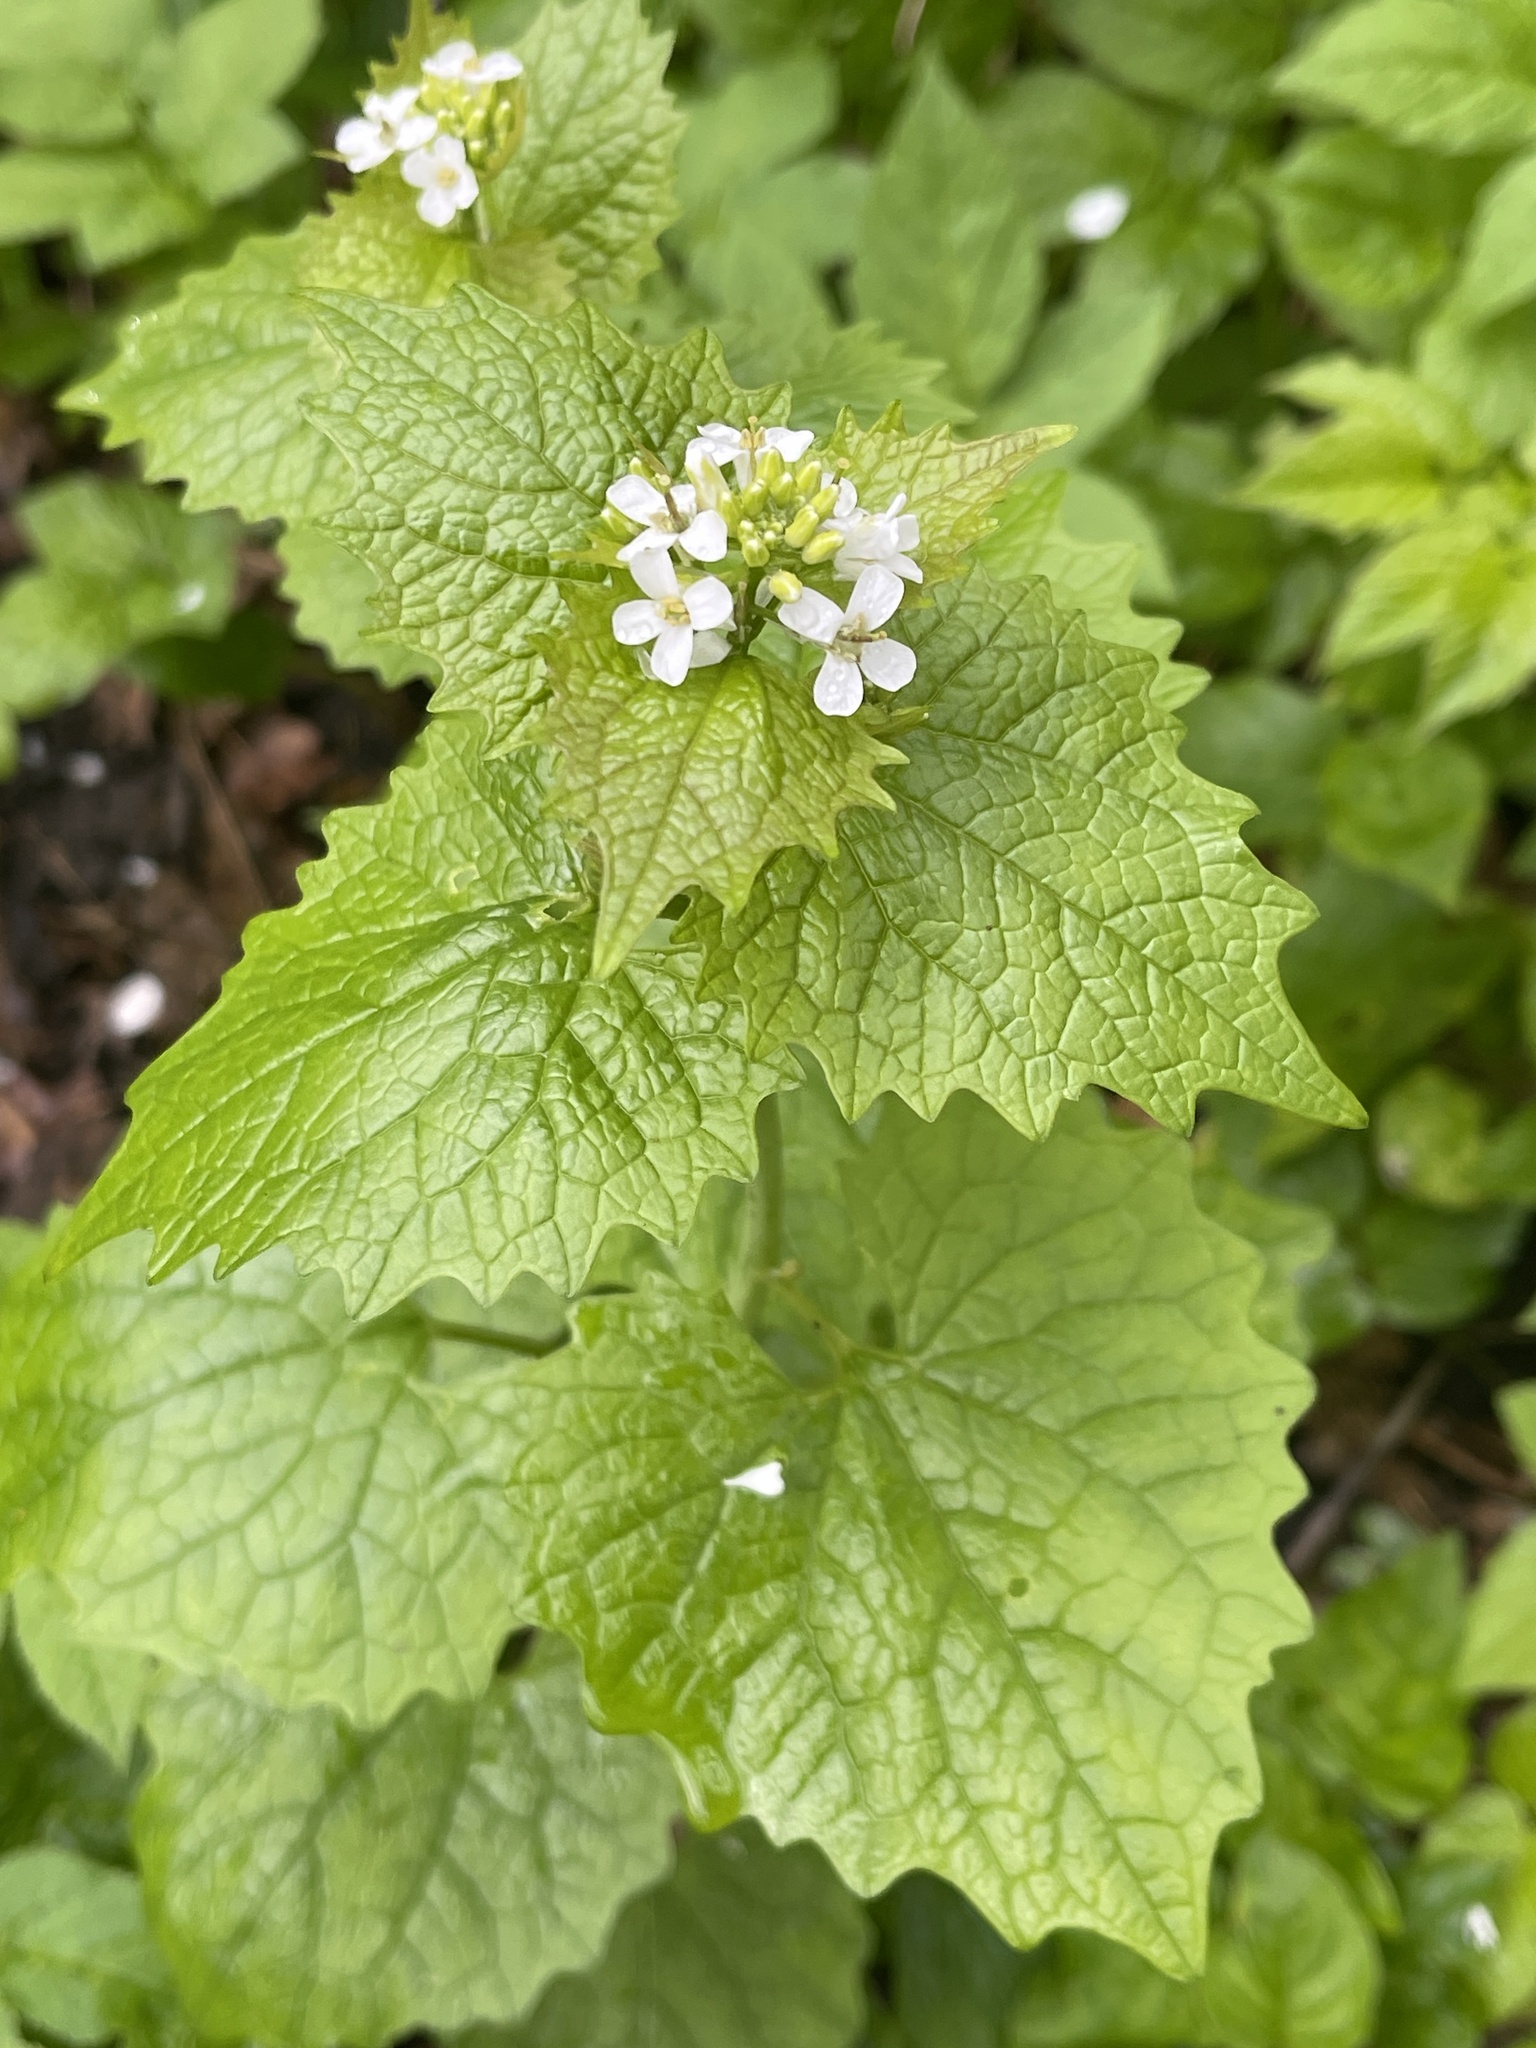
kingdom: Plantae
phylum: Tracheophyta
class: Magnoliopsida
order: Brassicales
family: Brassicaceae
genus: Alliaria
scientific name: Alliaria petiolata
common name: Garlic mustard
